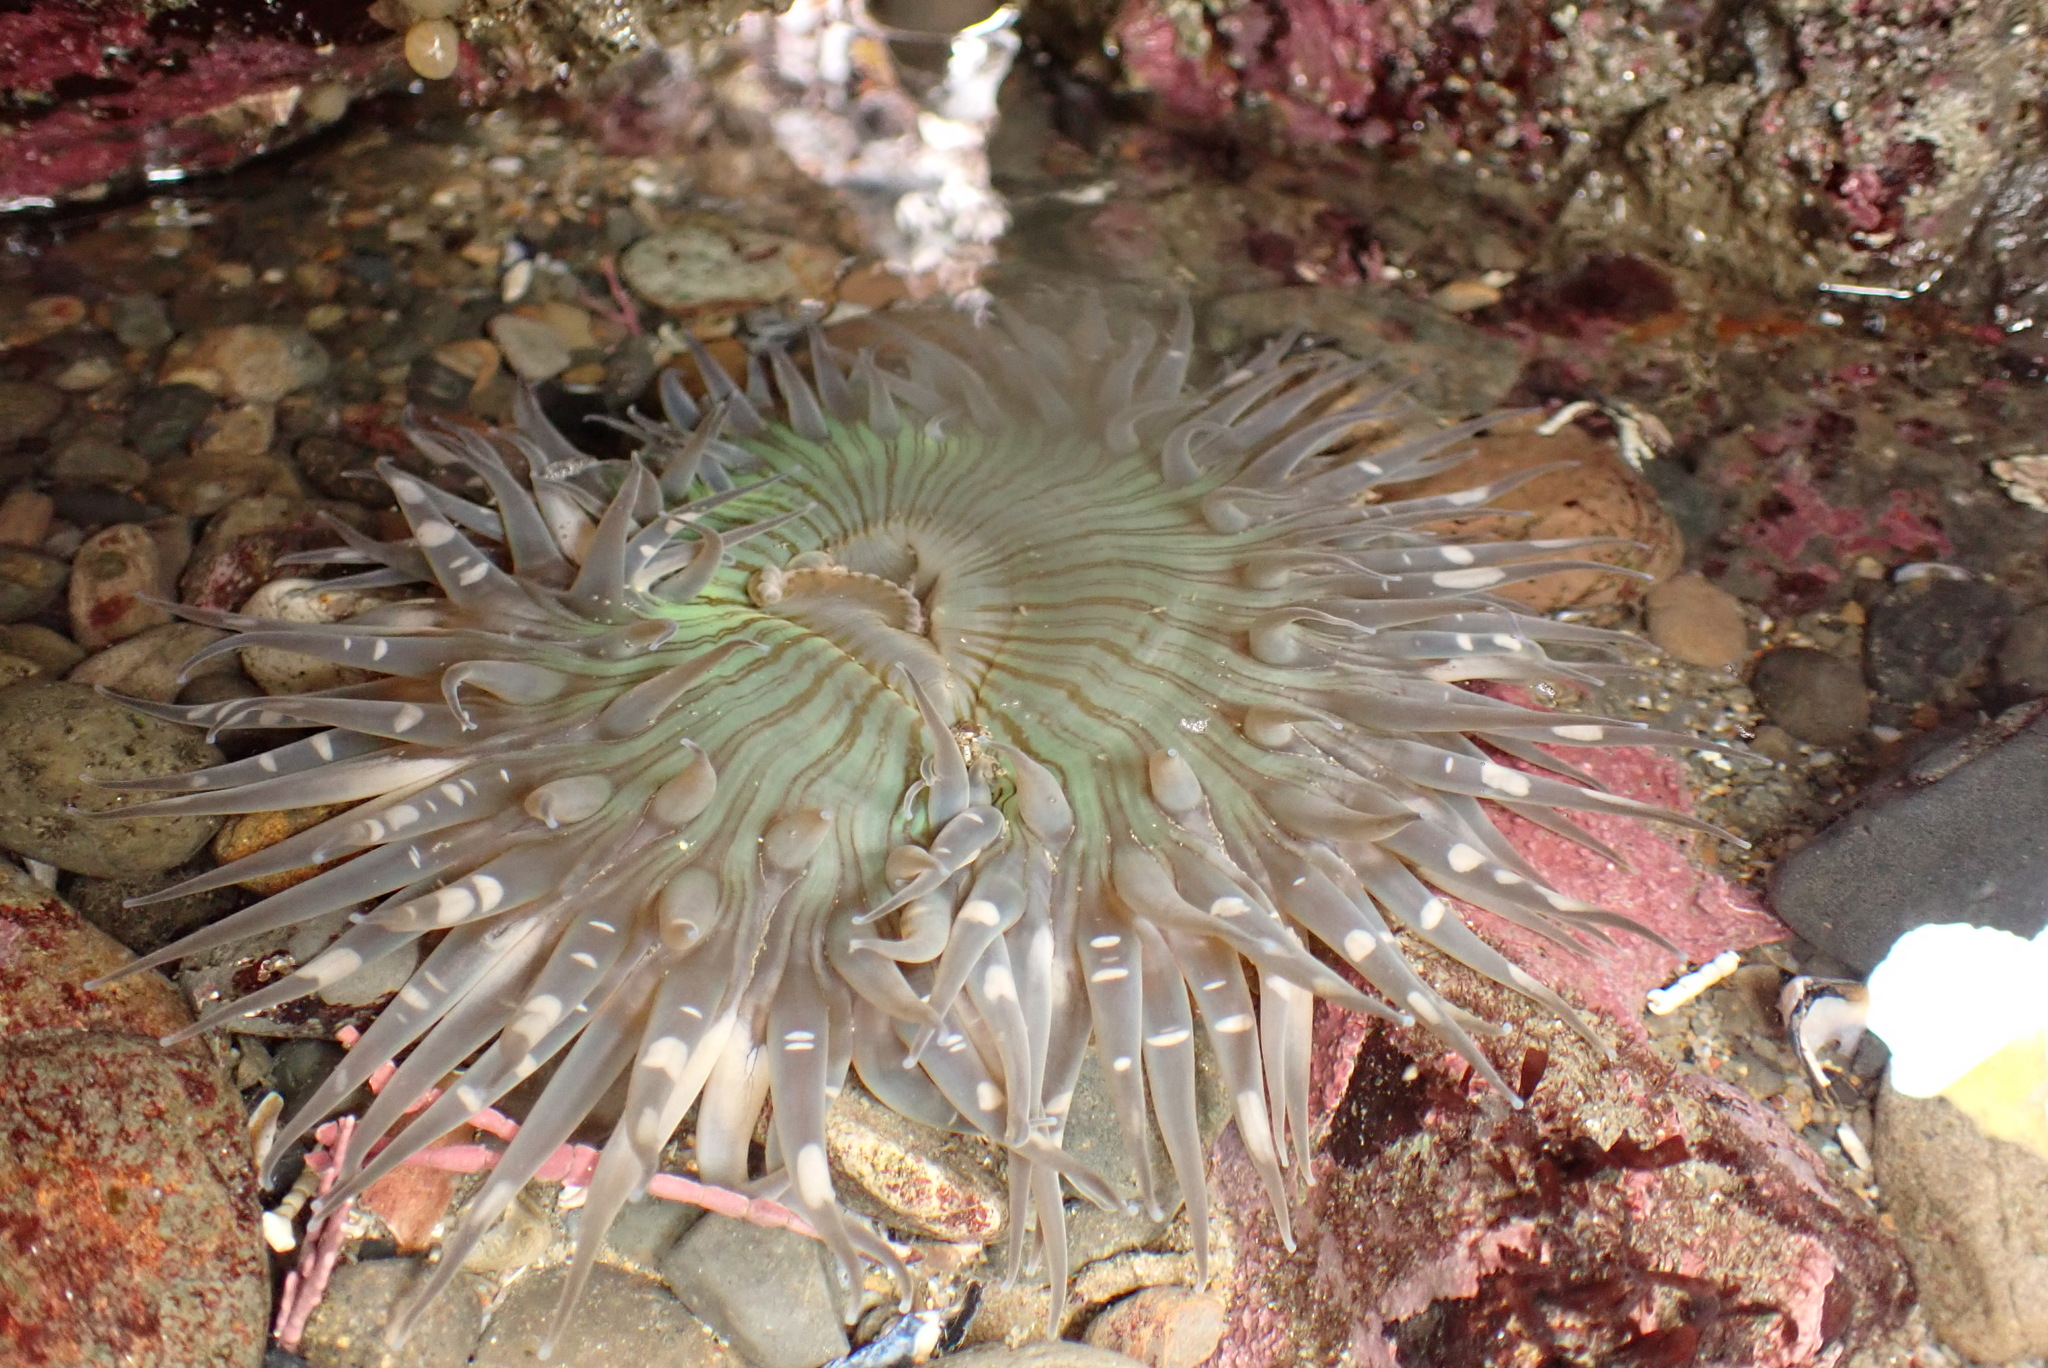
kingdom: Animalia
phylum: Cnidaria
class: Anthozoa
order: Actiniaria
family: Actiniidae
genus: Anthopleura
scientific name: Anthopleura sola
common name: Sun anemone
